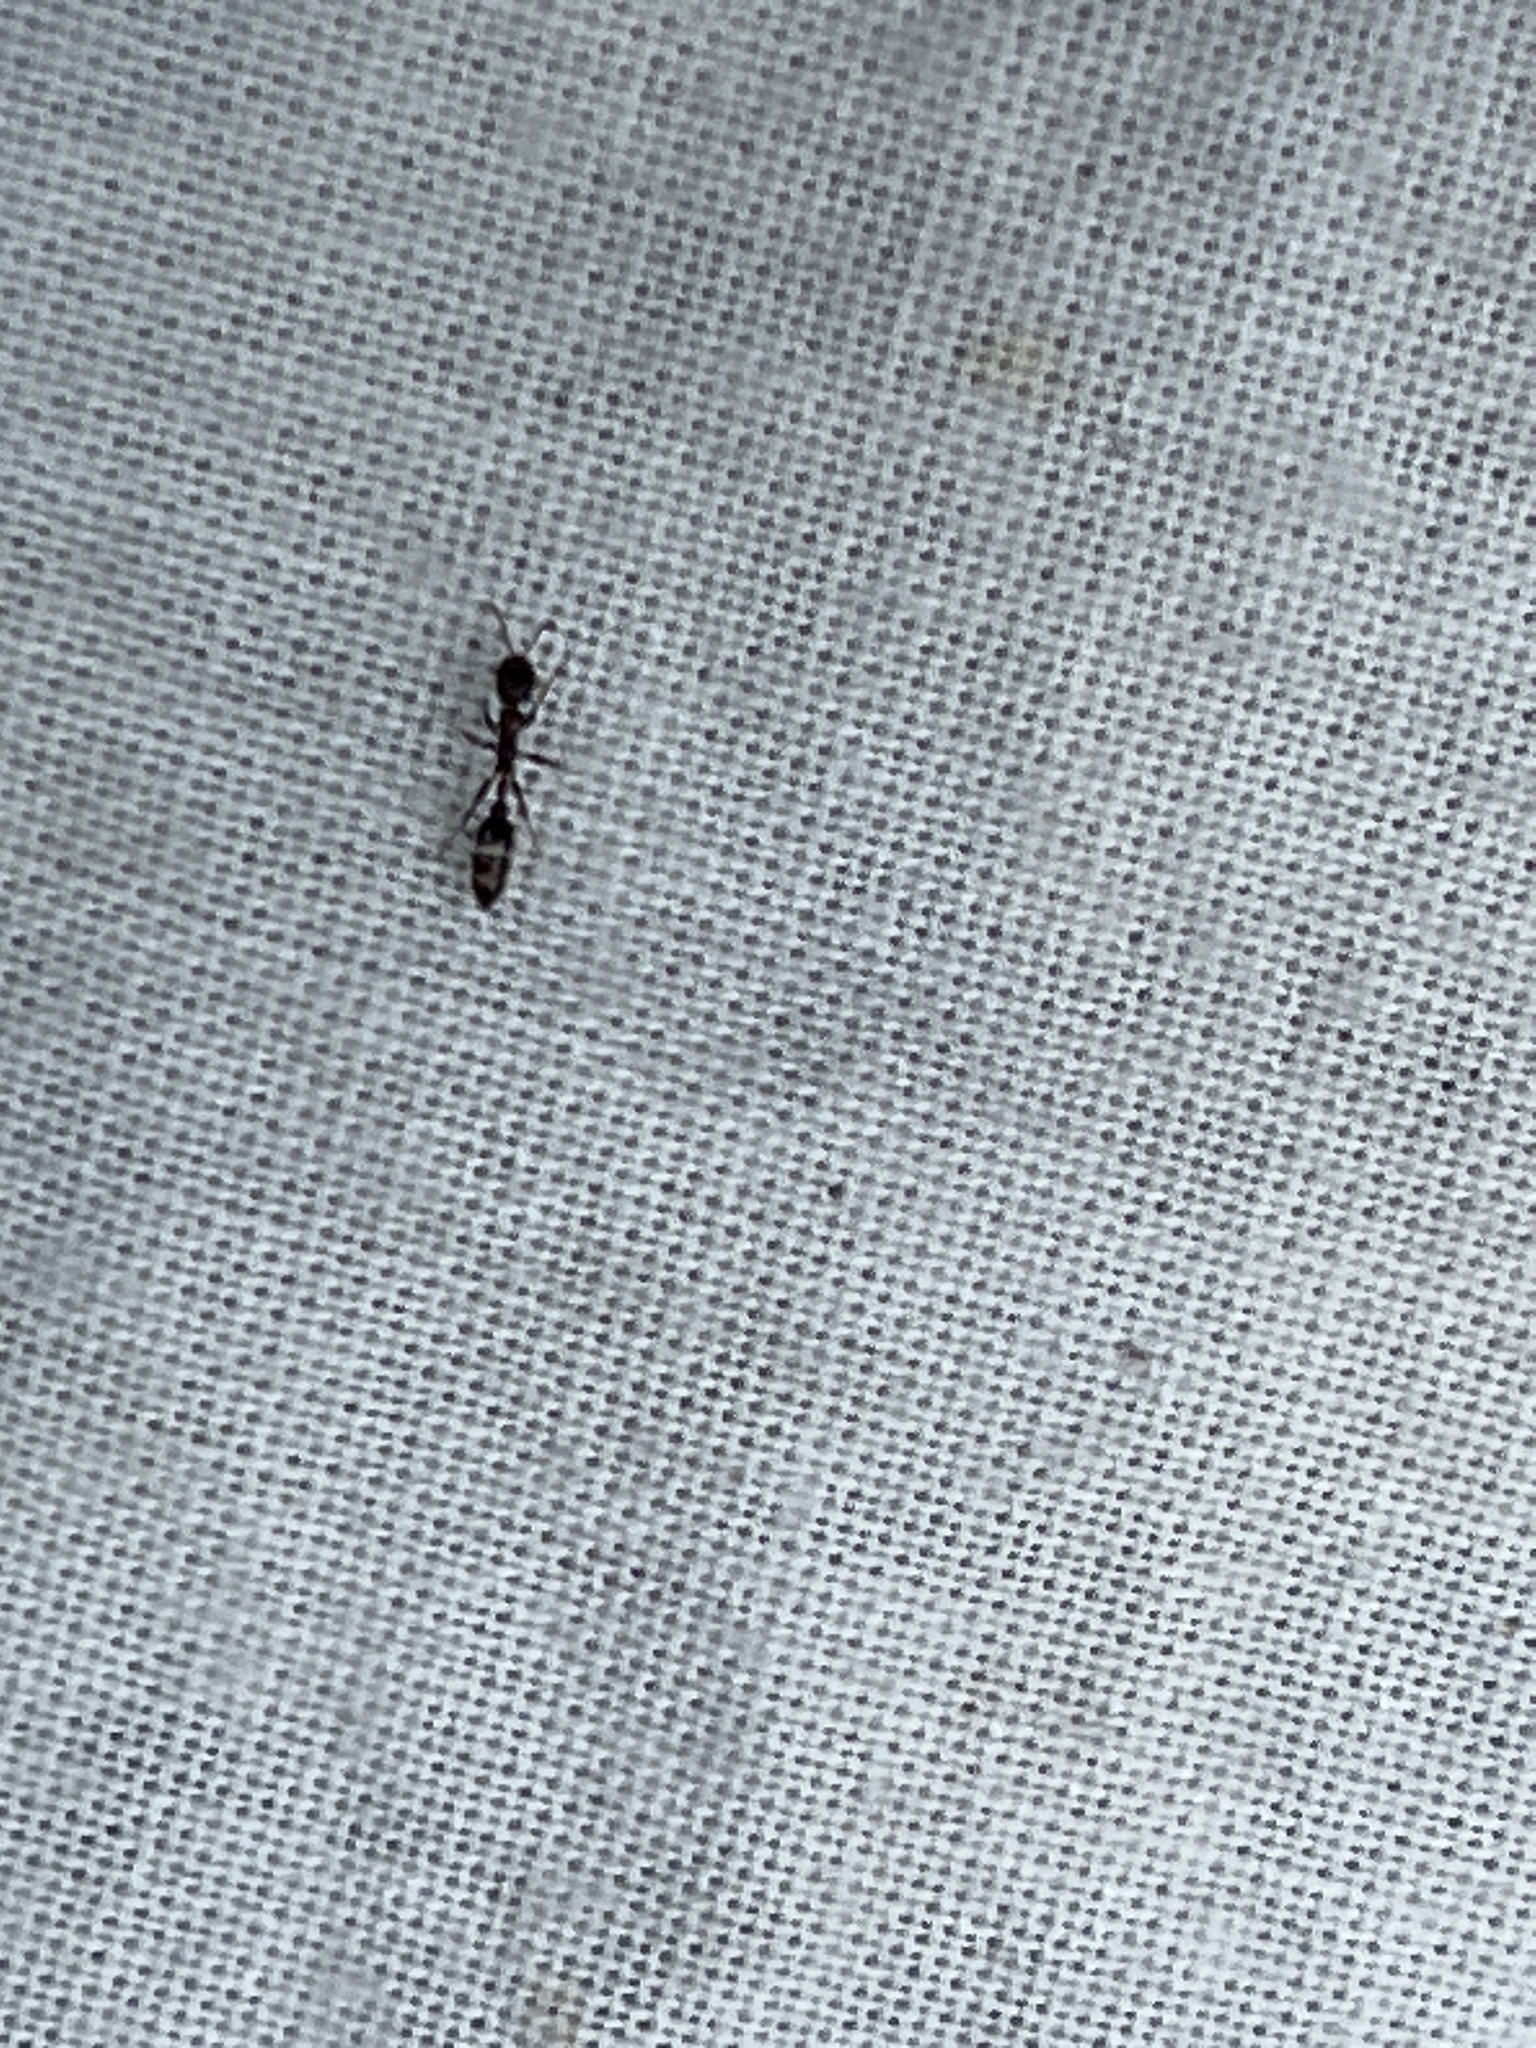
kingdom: Animalia
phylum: Arthropoda
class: Insecta
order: Hymenoptera
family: Formicidae
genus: Pseudomyrmex
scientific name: Pseudomyrmex ejectus
